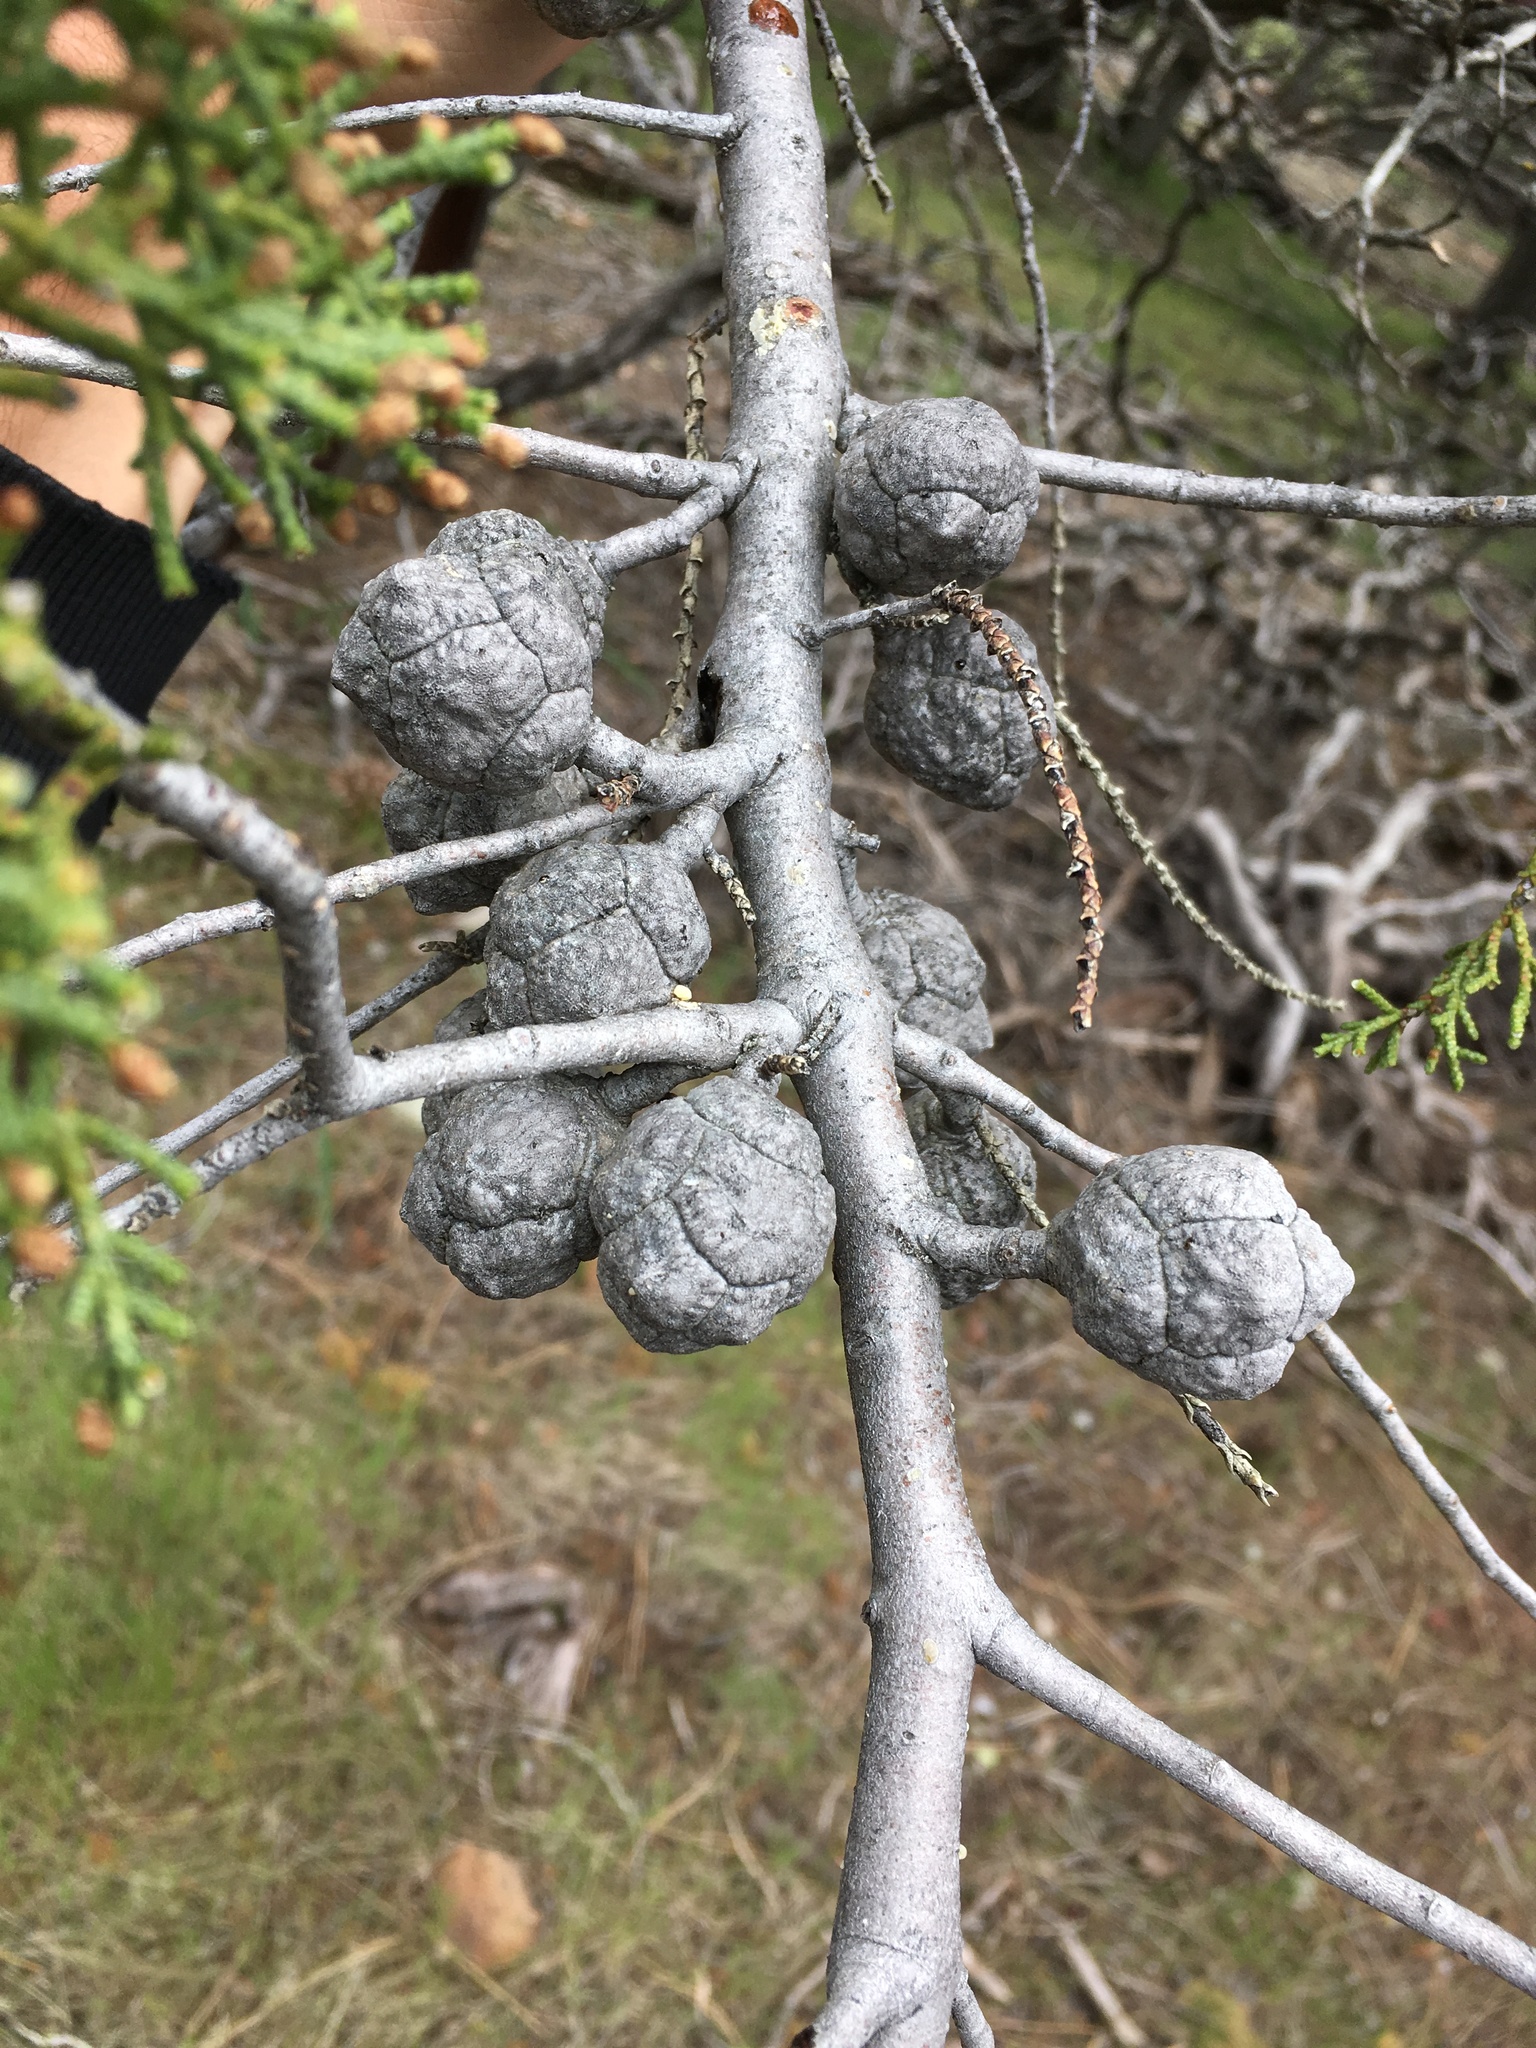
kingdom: Plantae
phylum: Tracheophyta
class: Pinopsida
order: Pinales
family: Cupressaceae
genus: Cupressus
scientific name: Cupressus sargentii
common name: Sargent cypress
